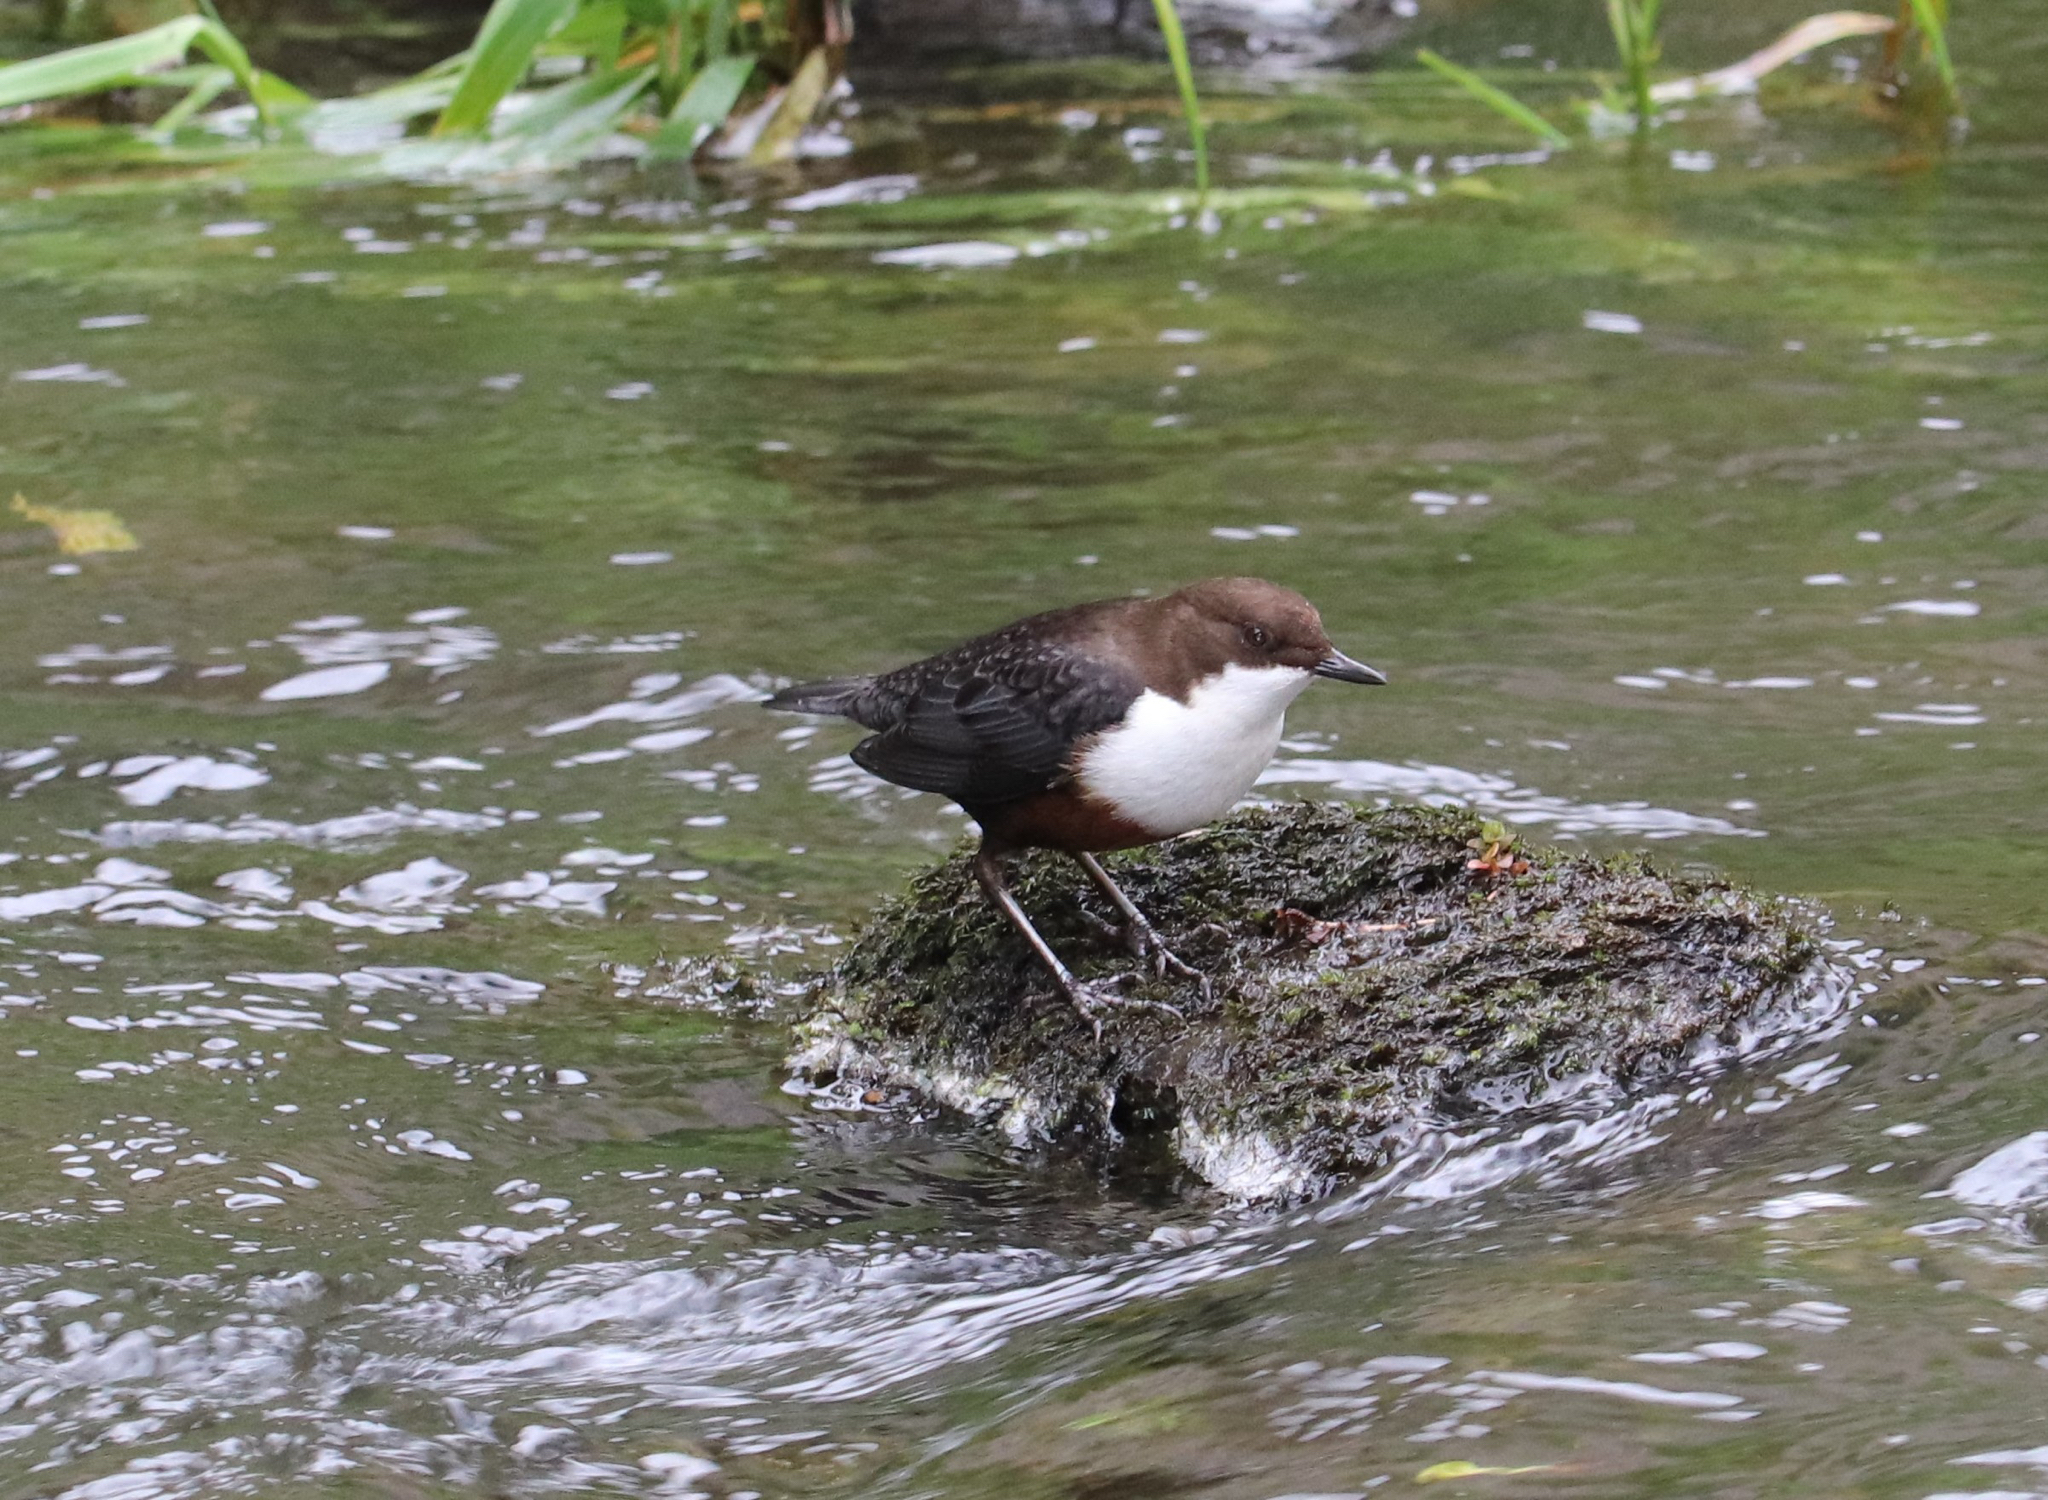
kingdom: Animalia
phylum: Chordata
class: Aves
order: Passeriformes
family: Cinclidae
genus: Cinclus
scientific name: Cinclus cinclus
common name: White-throated dipper
